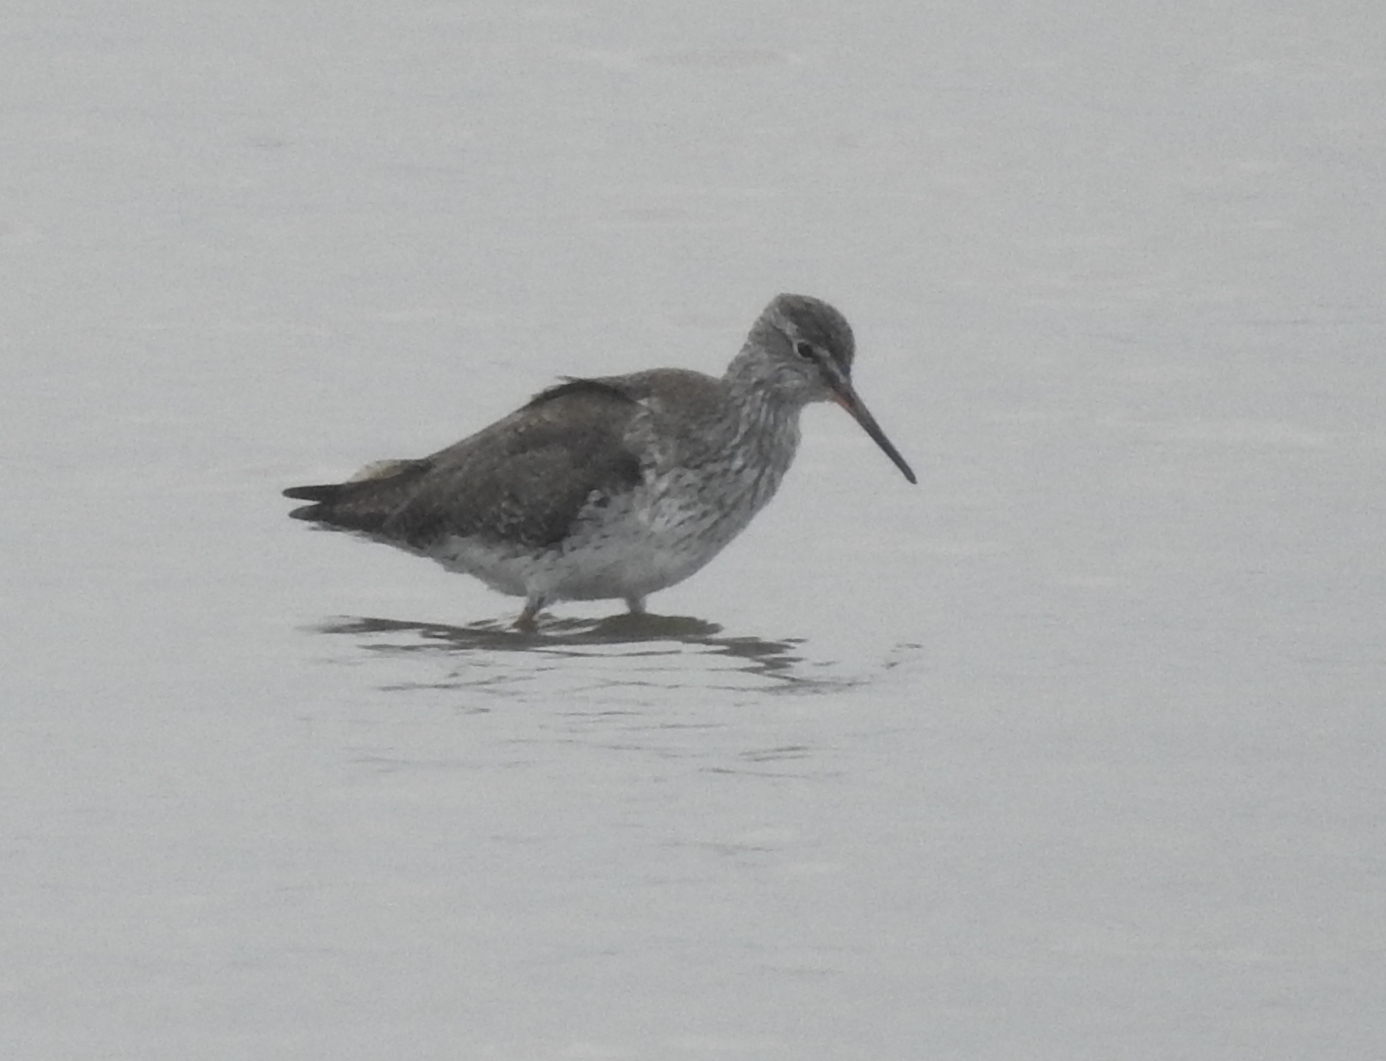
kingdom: Animalia
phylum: Chordata
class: Aves
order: Charadriiformes
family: Scolopacidae
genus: Tringa
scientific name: Tringa totanus
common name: Common redshank
